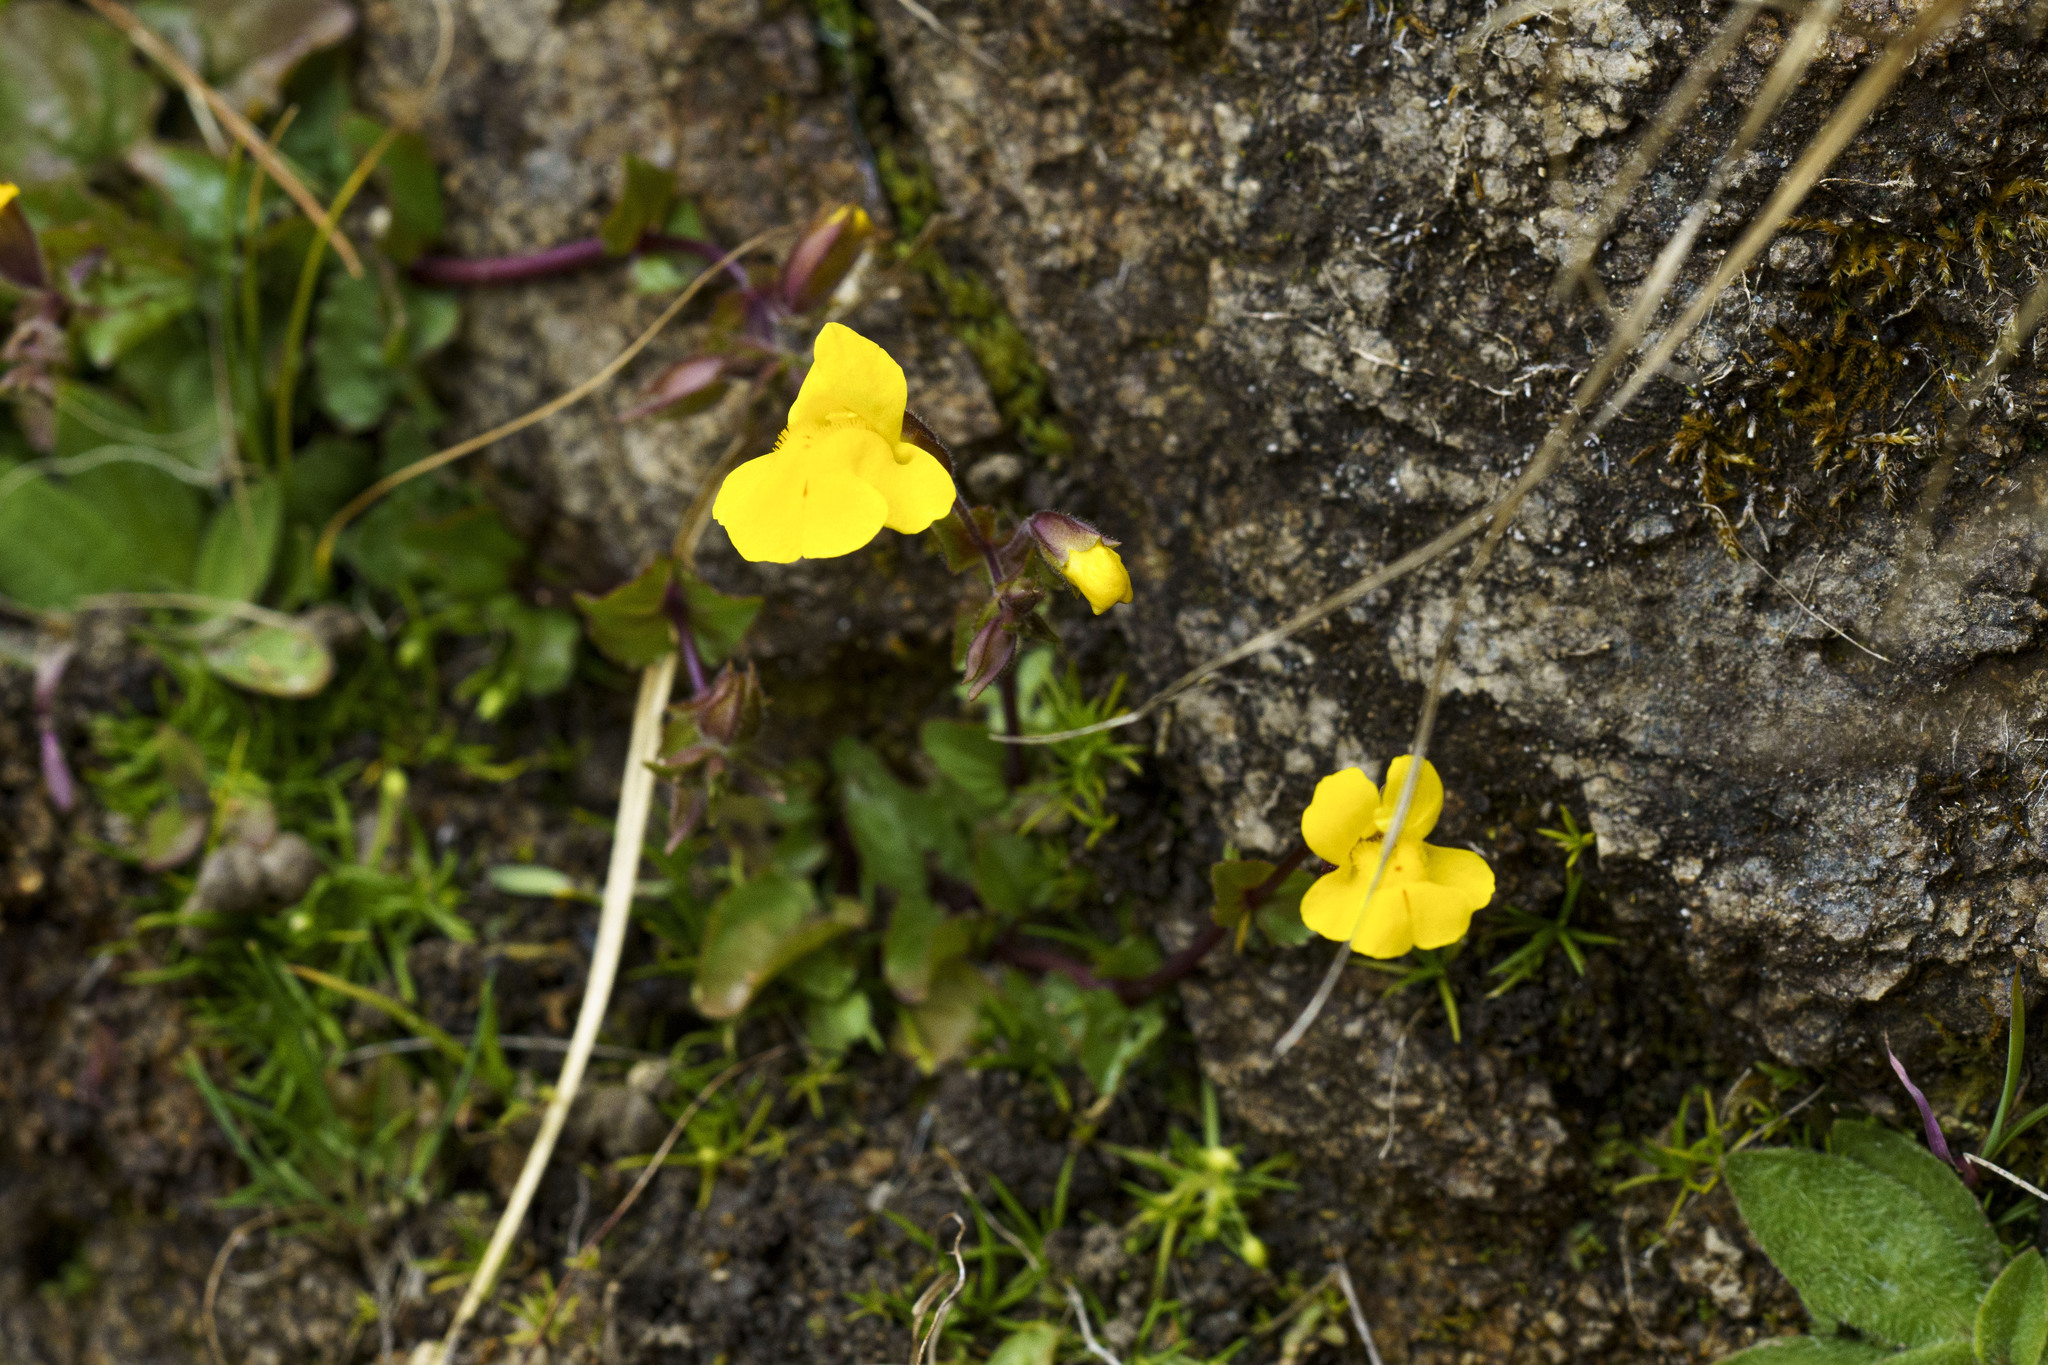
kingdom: Plantae
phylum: Tracheophyta
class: Magnoliopsida
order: Lamiales
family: Phrymaceae
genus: Erythranthe
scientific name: Erythranthe lagunensis
